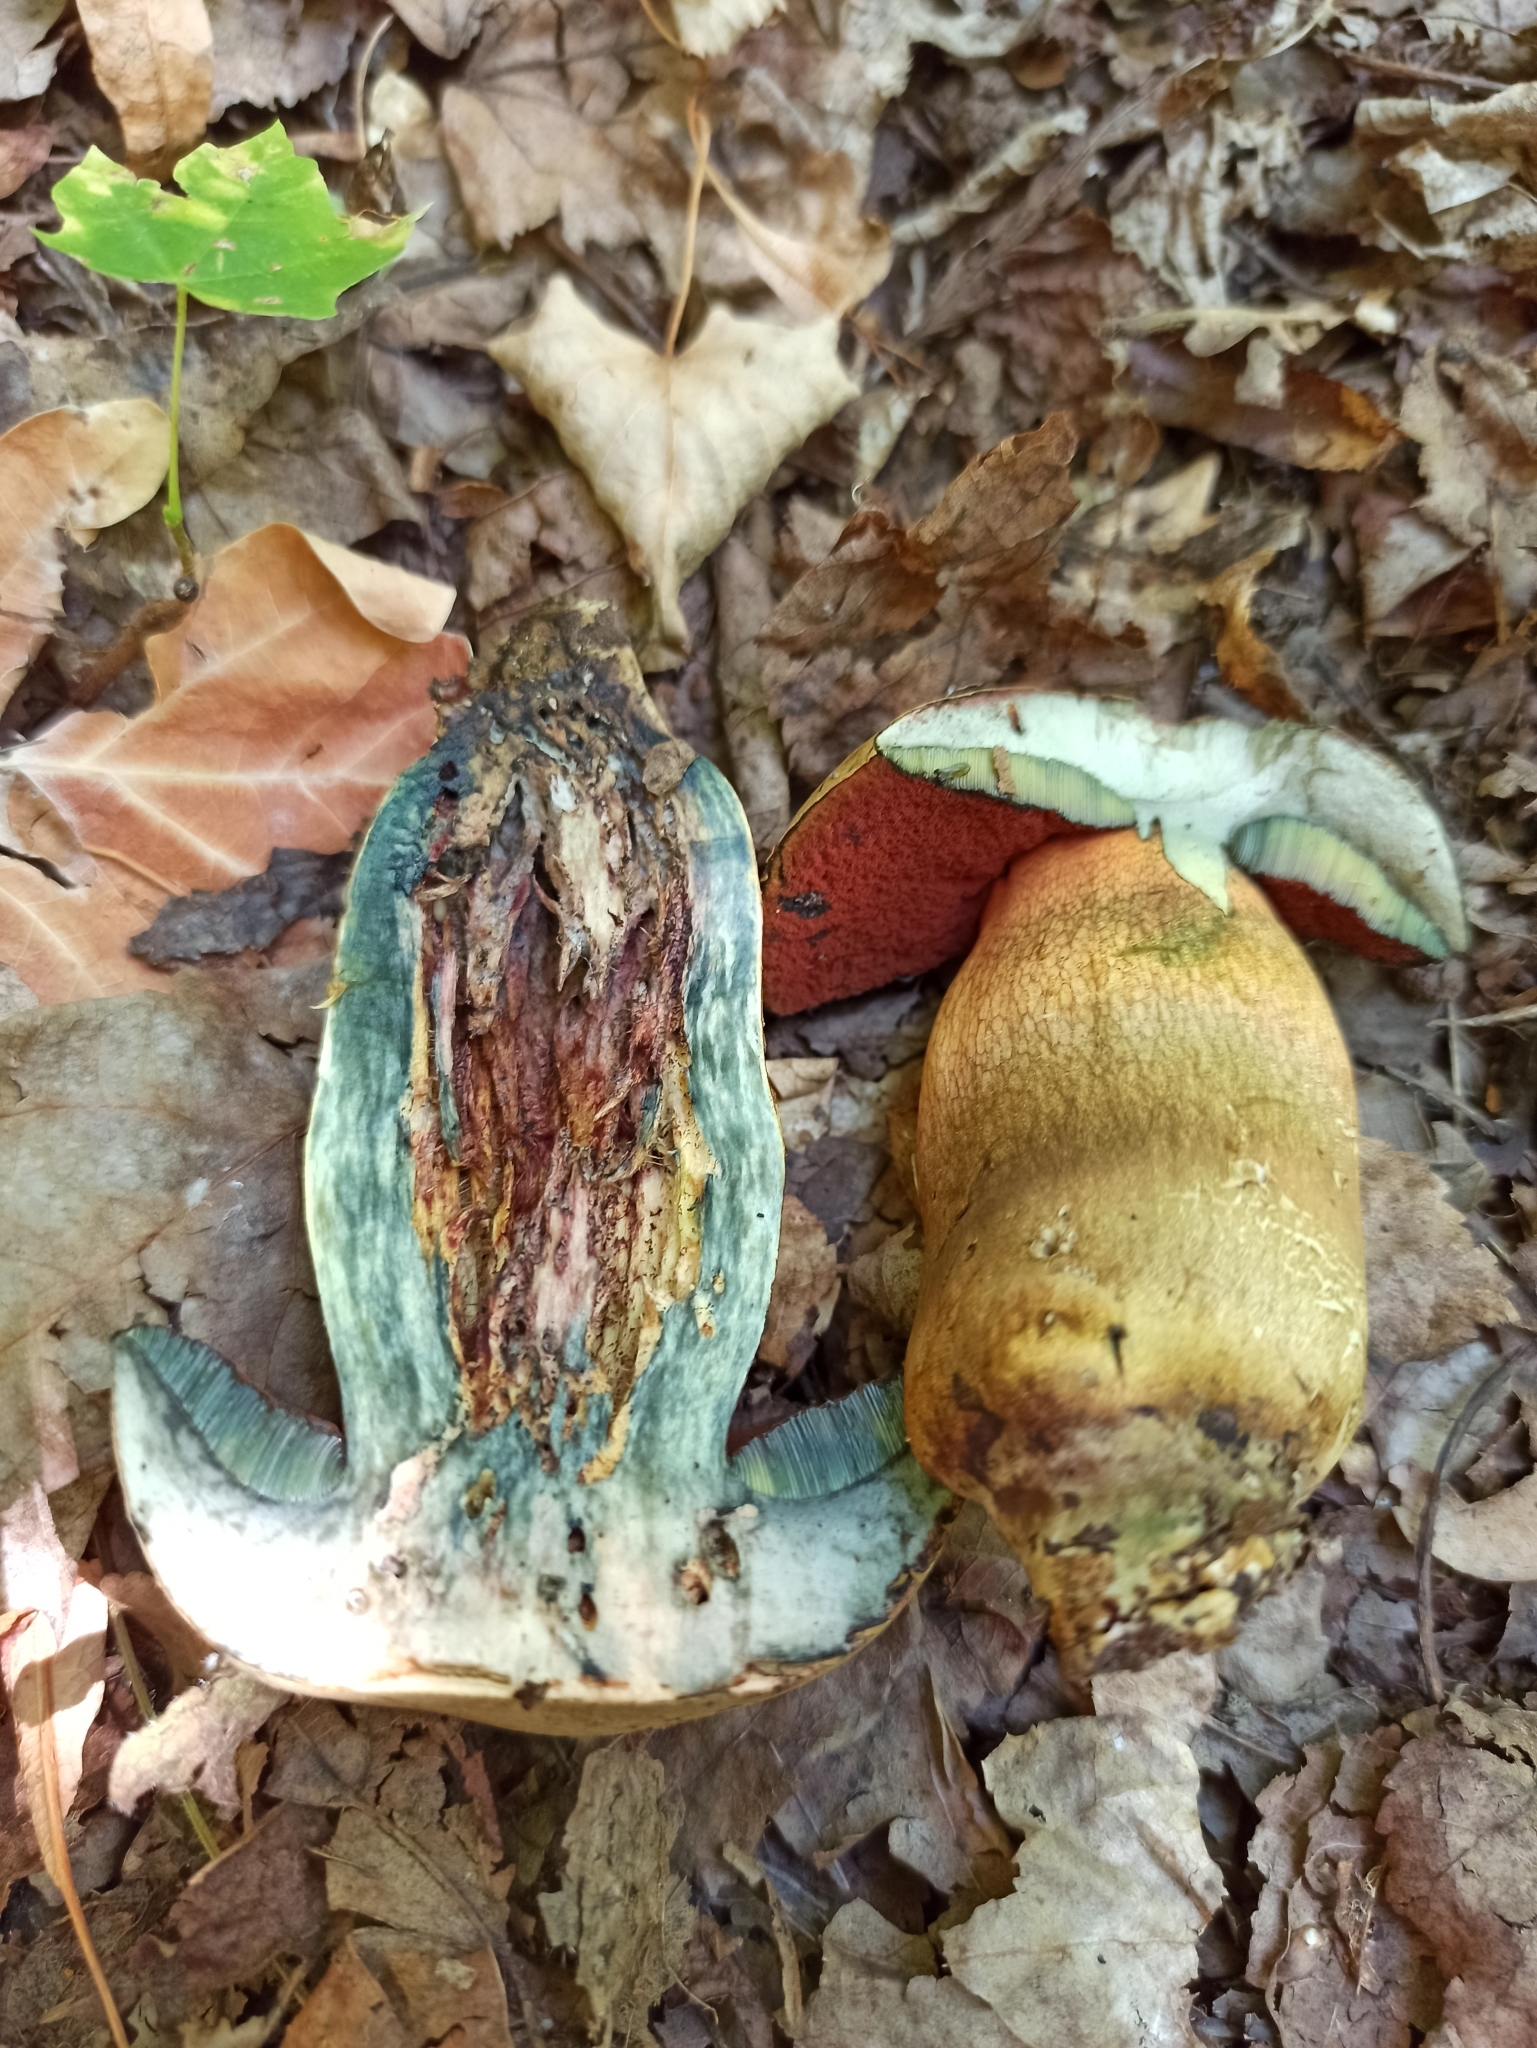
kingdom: Fungi
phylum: Basidiomycota
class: Agaricomycetes
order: Boletales
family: Boletaceae
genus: Suillellus
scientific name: Suillellus luridus
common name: Lurid bolete
